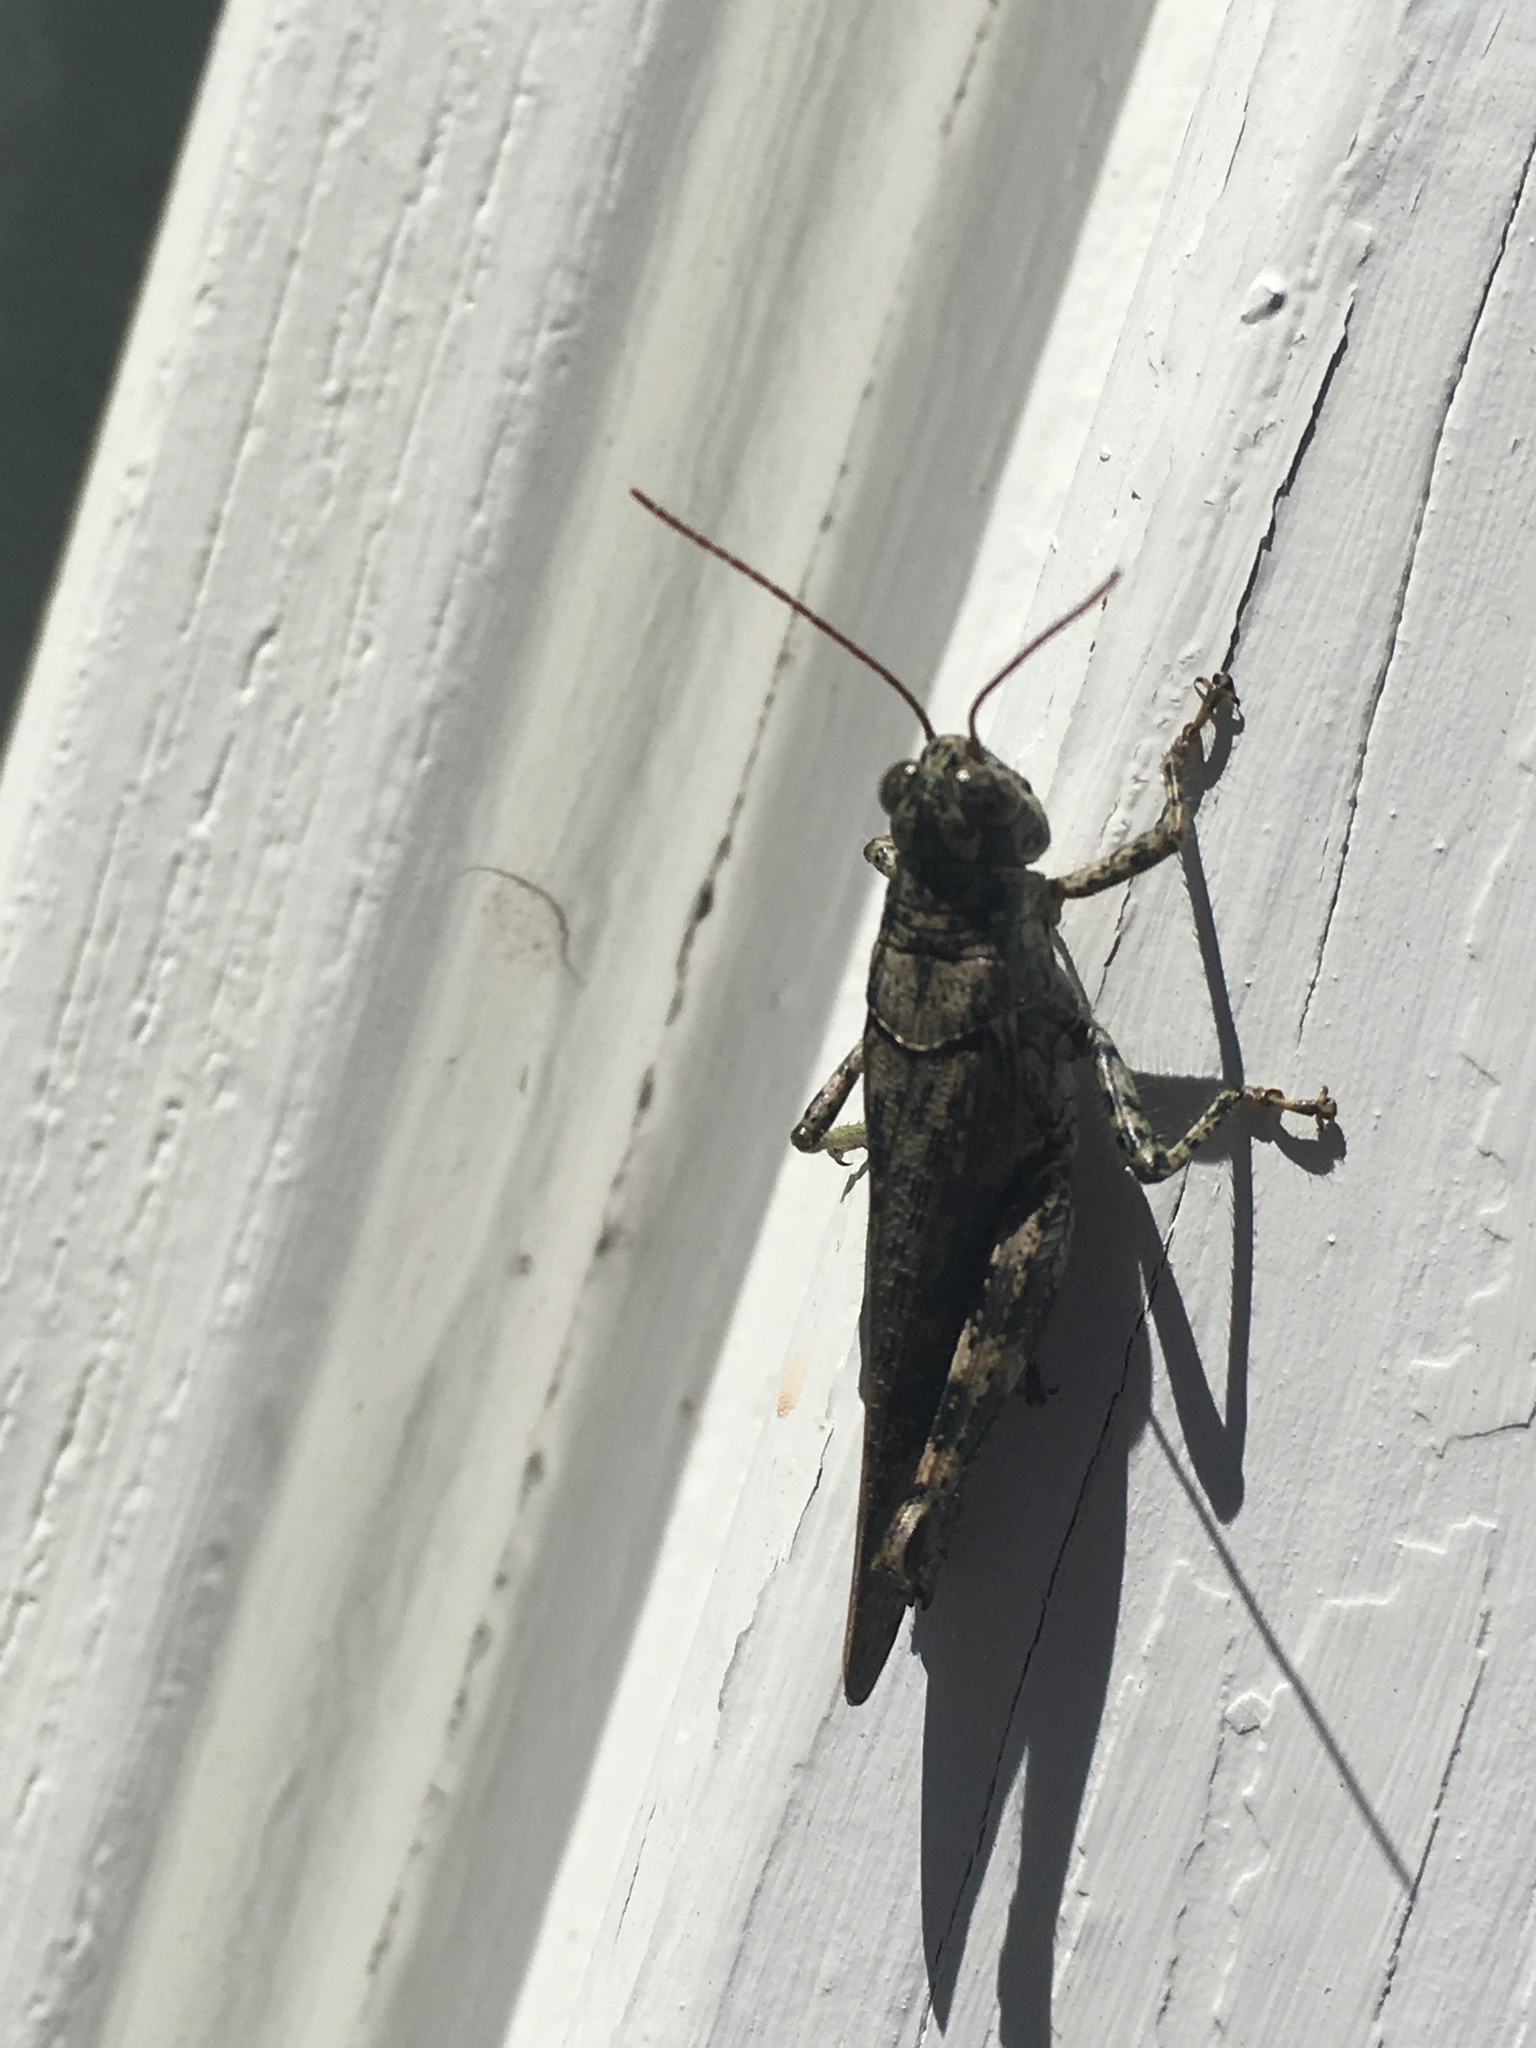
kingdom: Animalia
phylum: Arthropoda
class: Insecta
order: Orthoptera
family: Acrididae
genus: Melanoplus
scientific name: Melanoplus punctulatus
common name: Pine-tree spur-throat grasshopper
